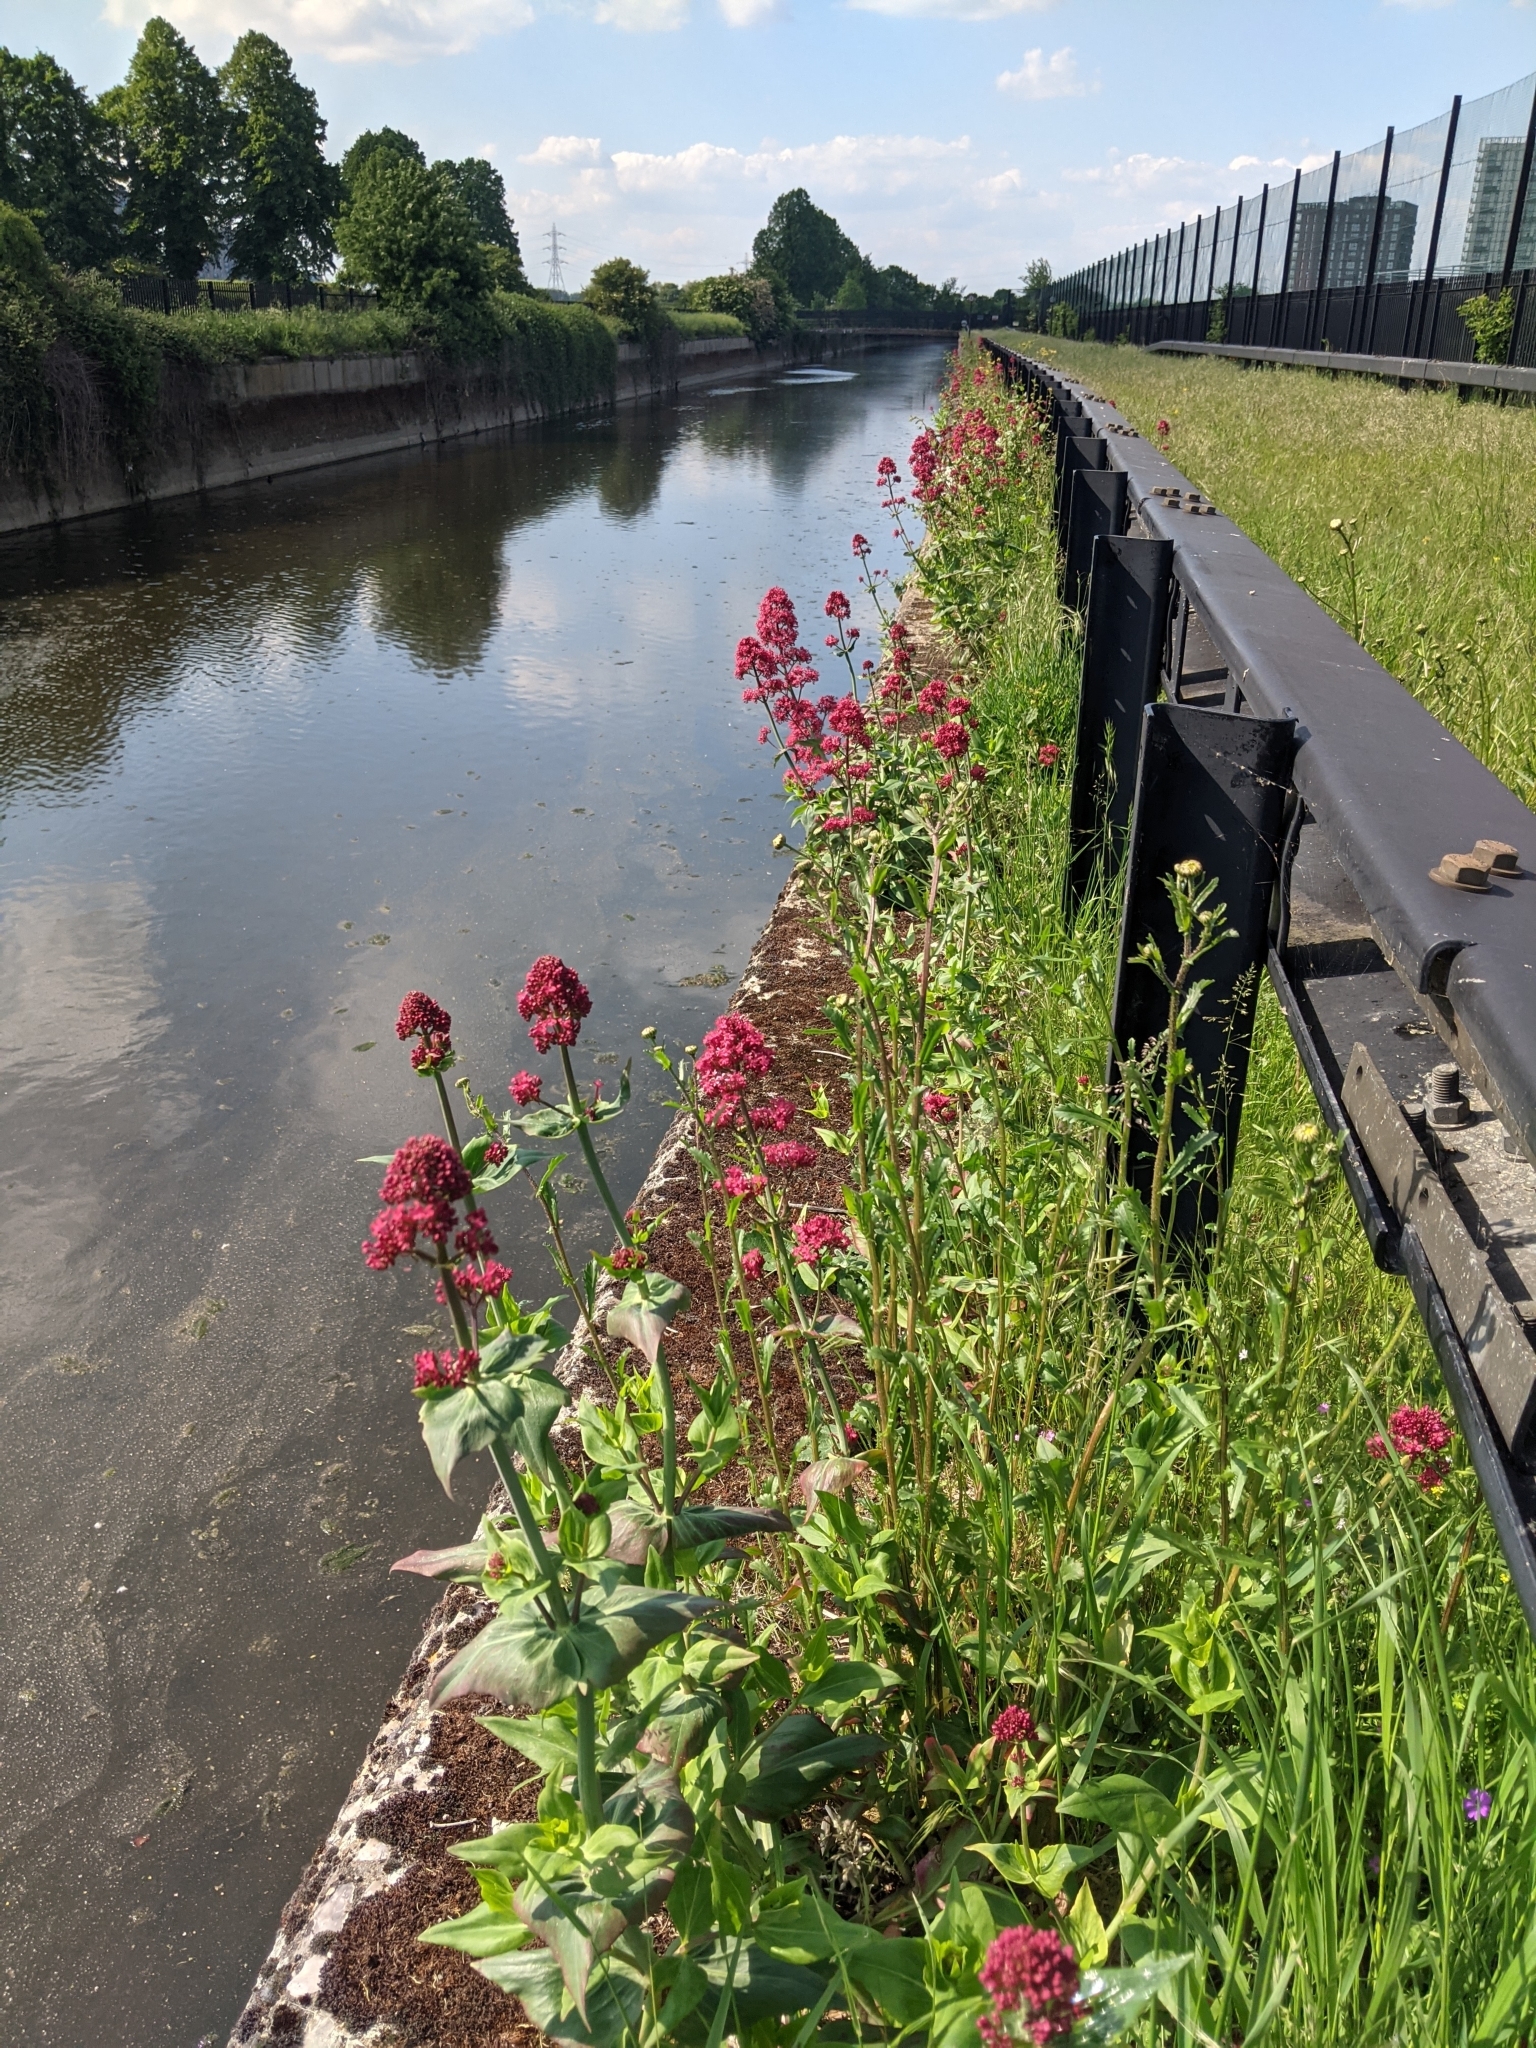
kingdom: Plantae
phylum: Tracheophyta
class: Magnoliopsida
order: Dipsacales
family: Caprifoliaceae
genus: Centranthus
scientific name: Centranthus ruber
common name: Red valerian
